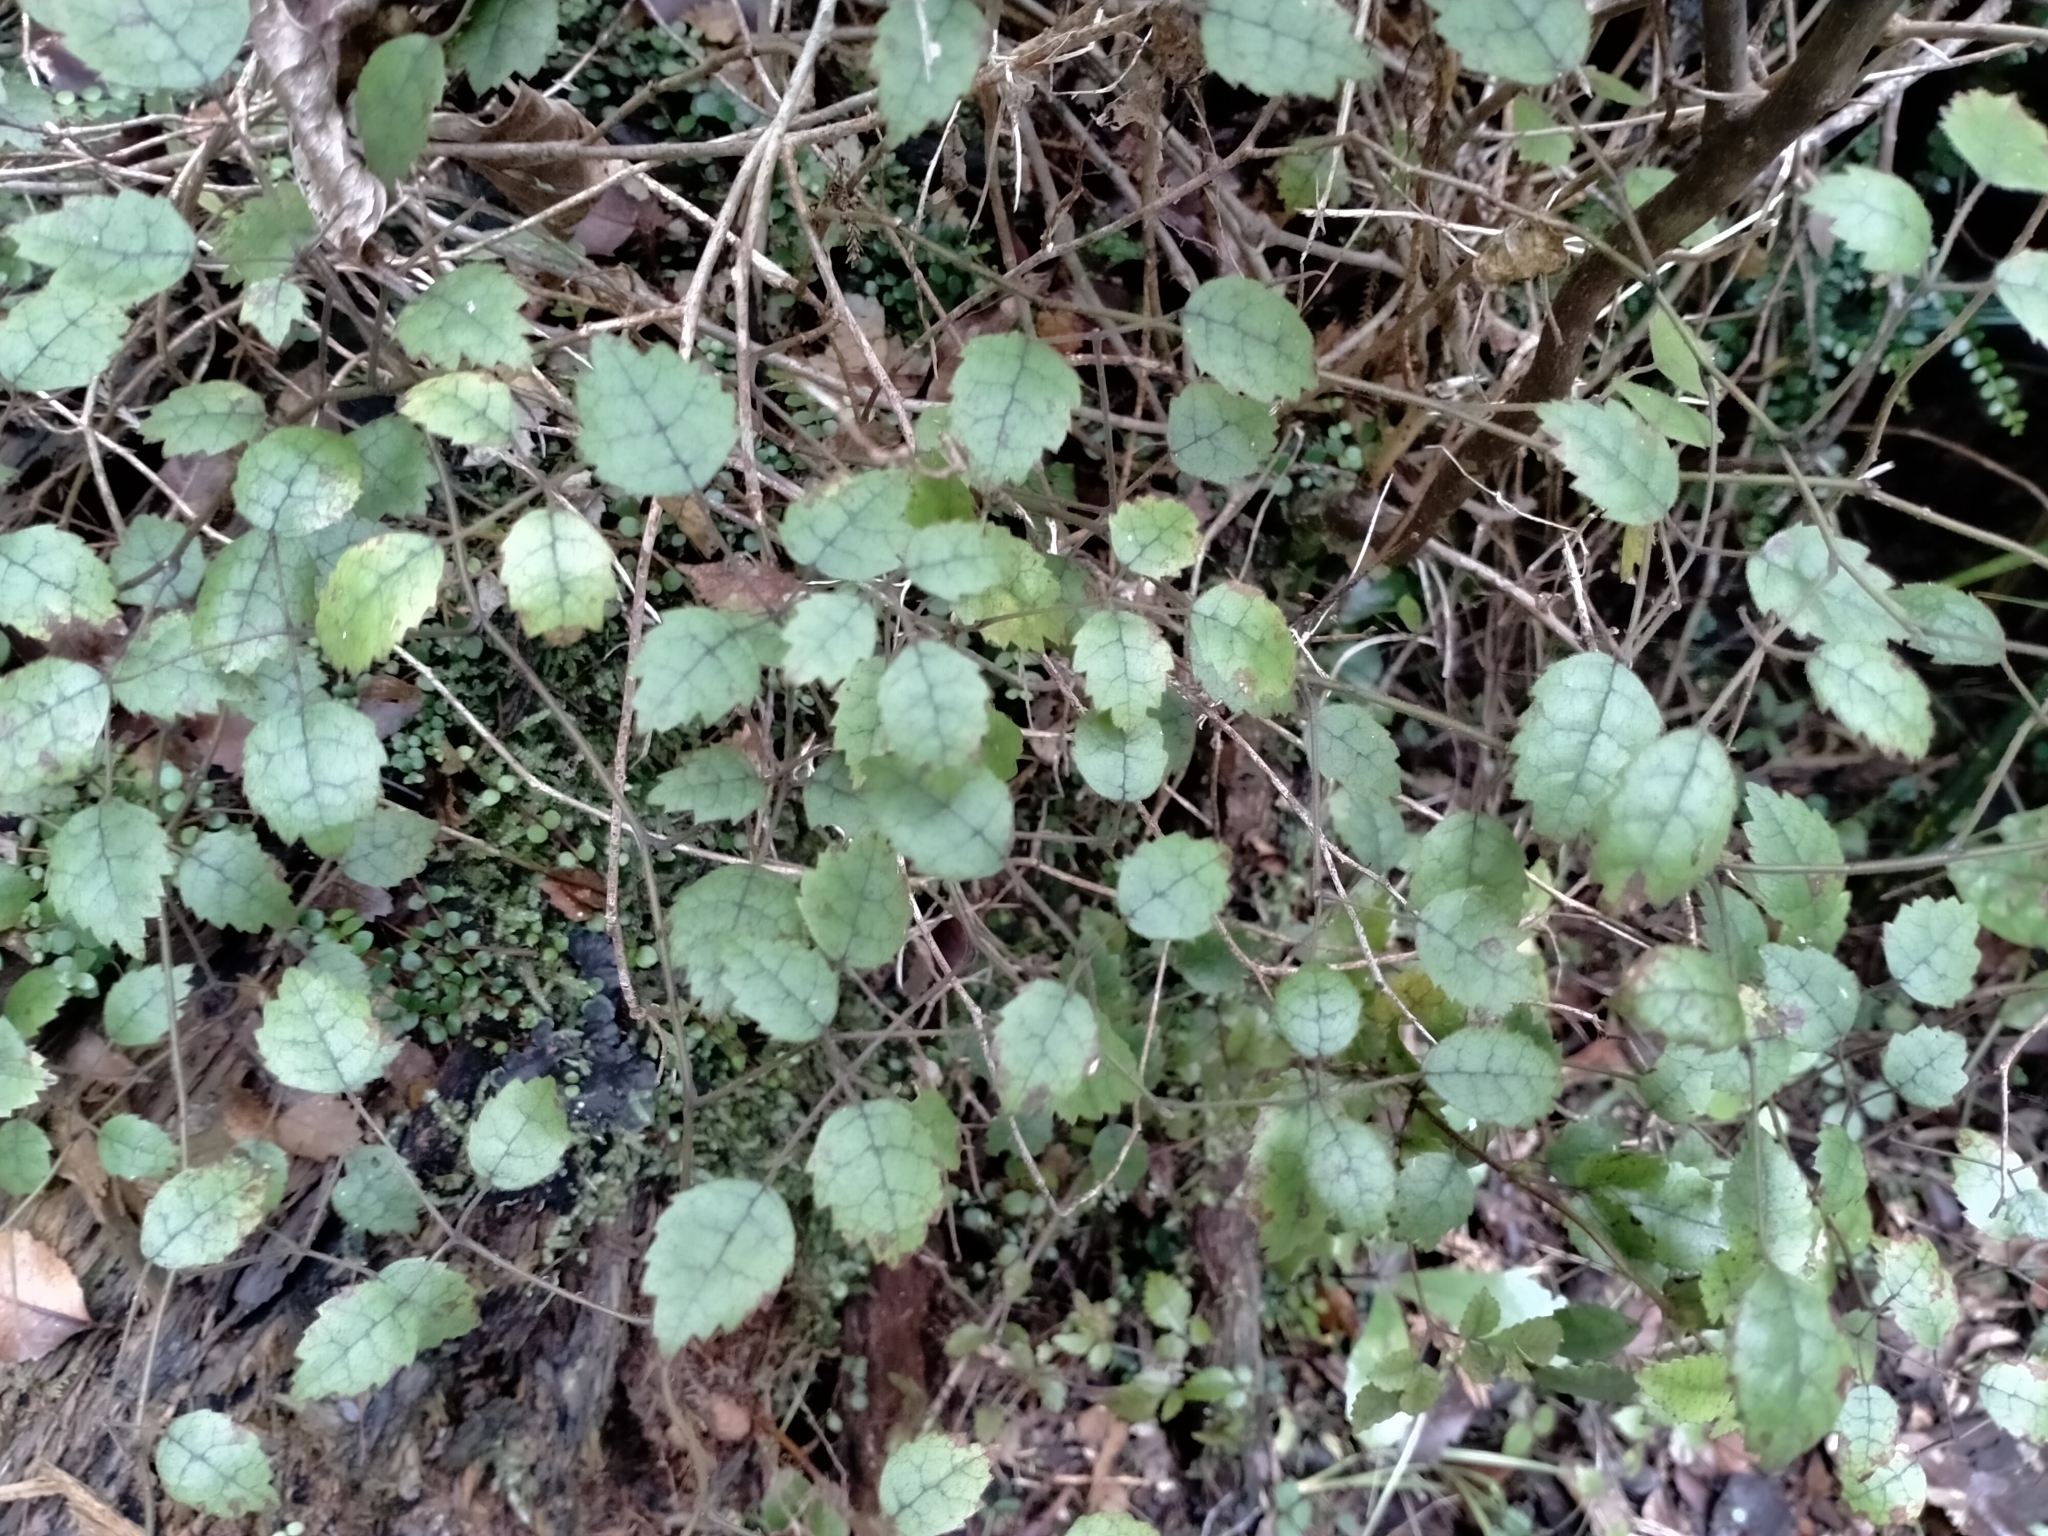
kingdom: Plantae
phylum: Tracheophyta
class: Magnoliopsida
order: Rosales
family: Rosaceae
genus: Rubus
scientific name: Rubus australis
